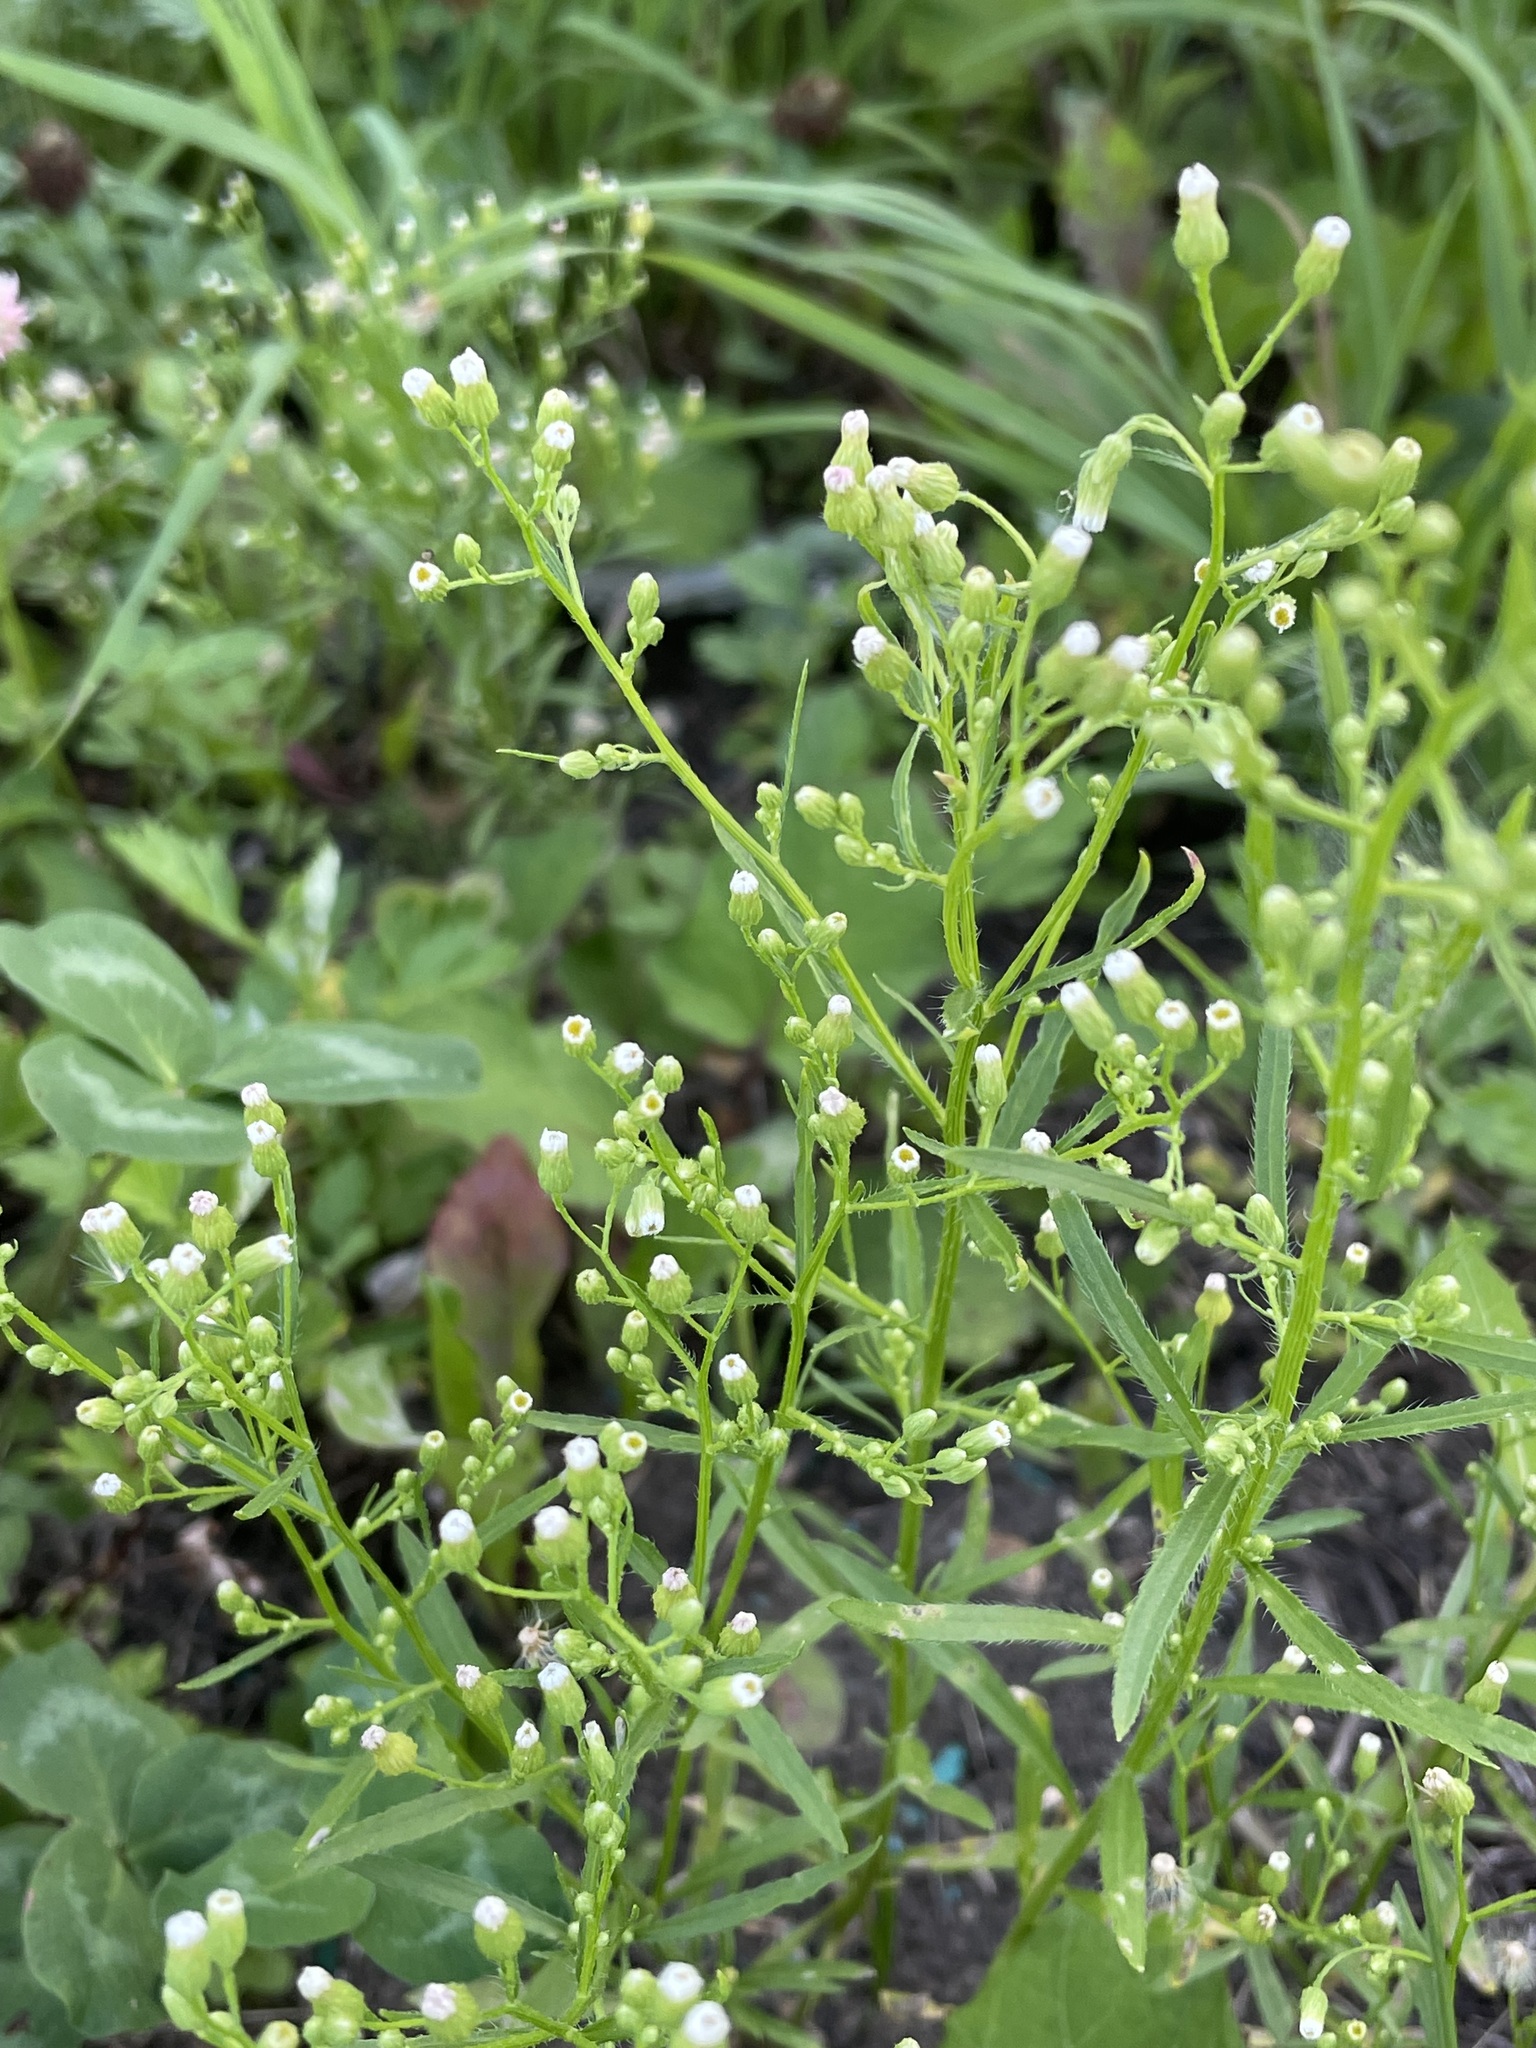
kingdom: Plantae
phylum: Tracheophyta
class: Magnoliopsida
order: Asterales
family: Asteraceae
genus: Erigeron
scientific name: Erigeron canadensis
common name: Canadian fleabane
